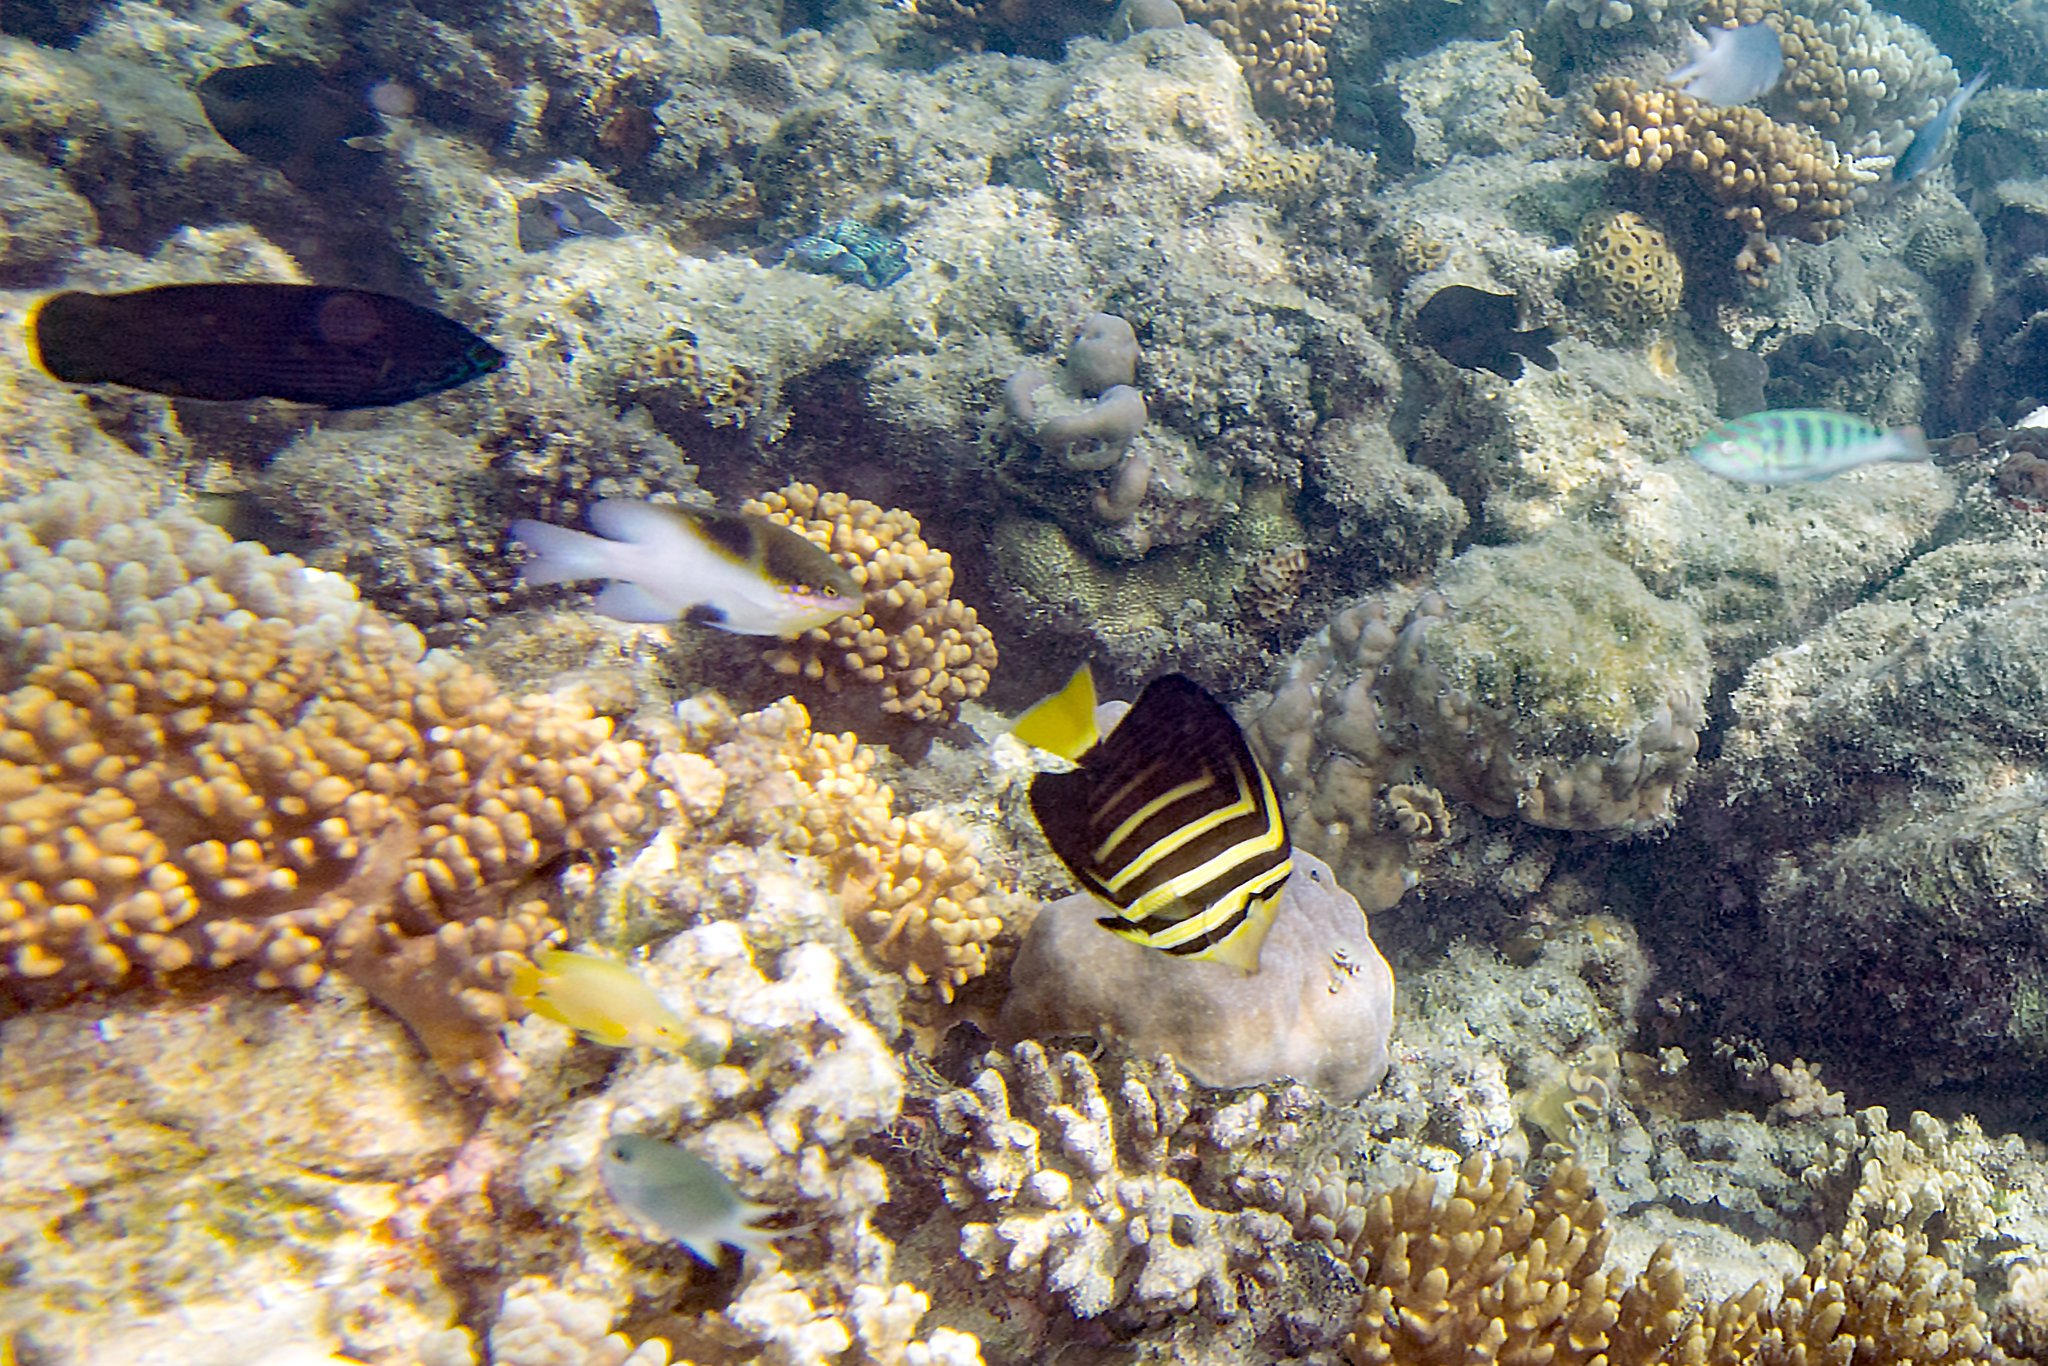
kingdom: Animalia
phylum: Chordata
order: Perciformes
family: Labridae
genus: Labrichthys
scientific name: Labrichthys unilineatus
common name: Onelined wrasse
